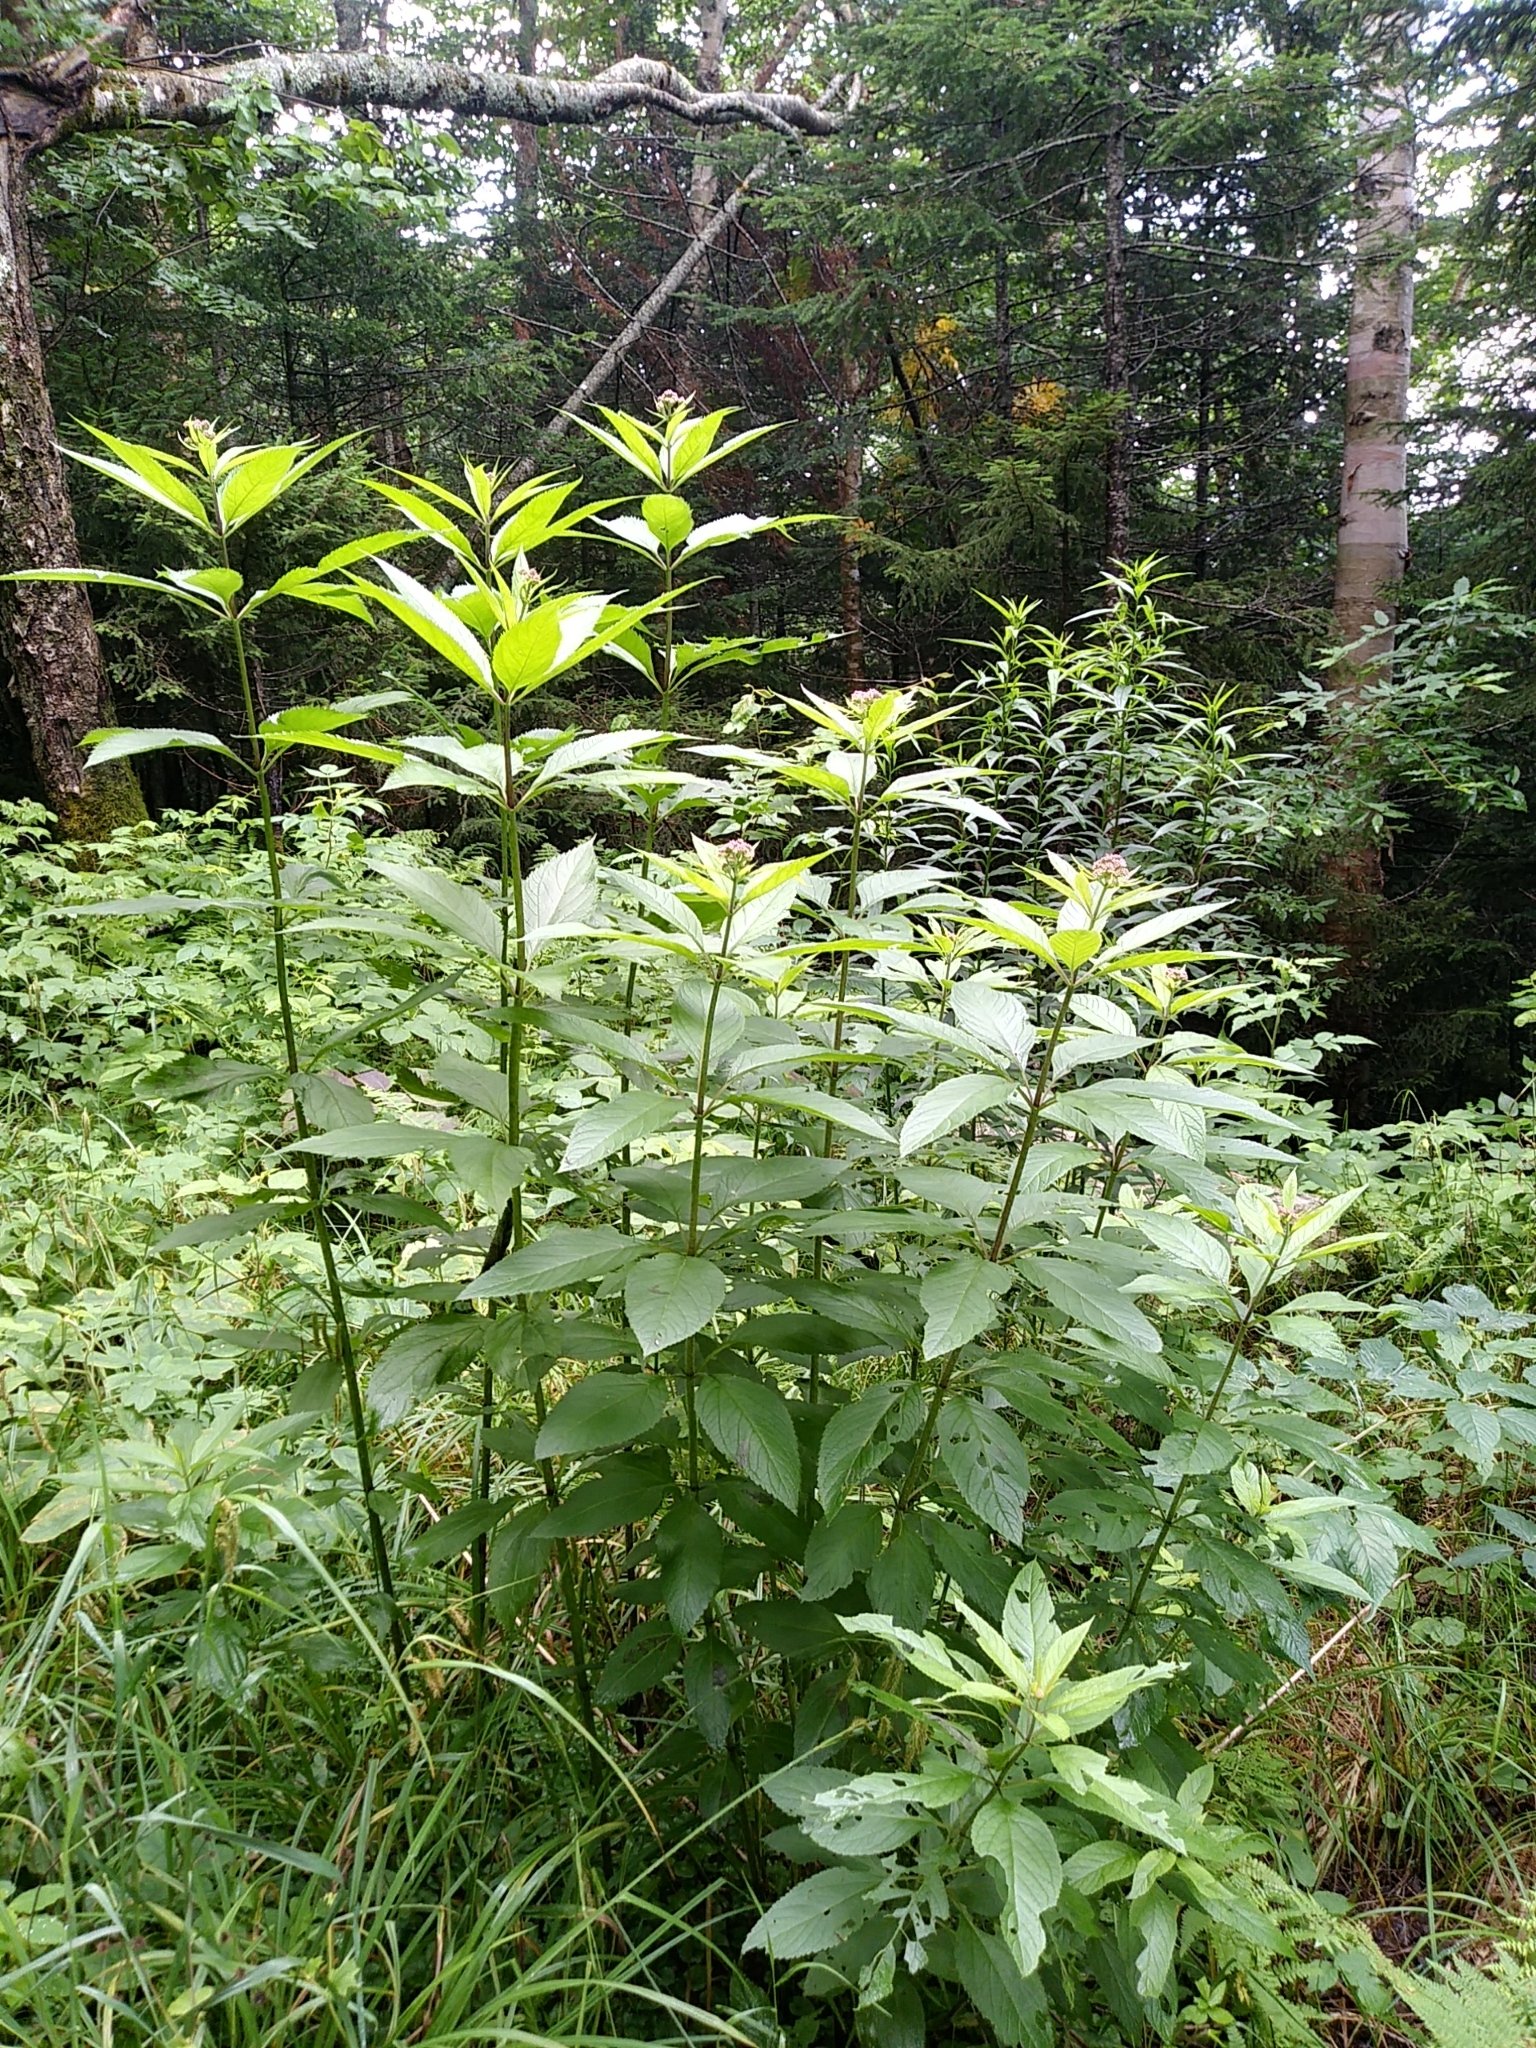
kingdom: Plantae
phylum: Tracheophyta
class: Magnoliopsida
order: Asterales
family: Asteraceae
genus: Eutrochium
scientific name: Eutrochium maculatum
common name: Spotted joe pye weed
